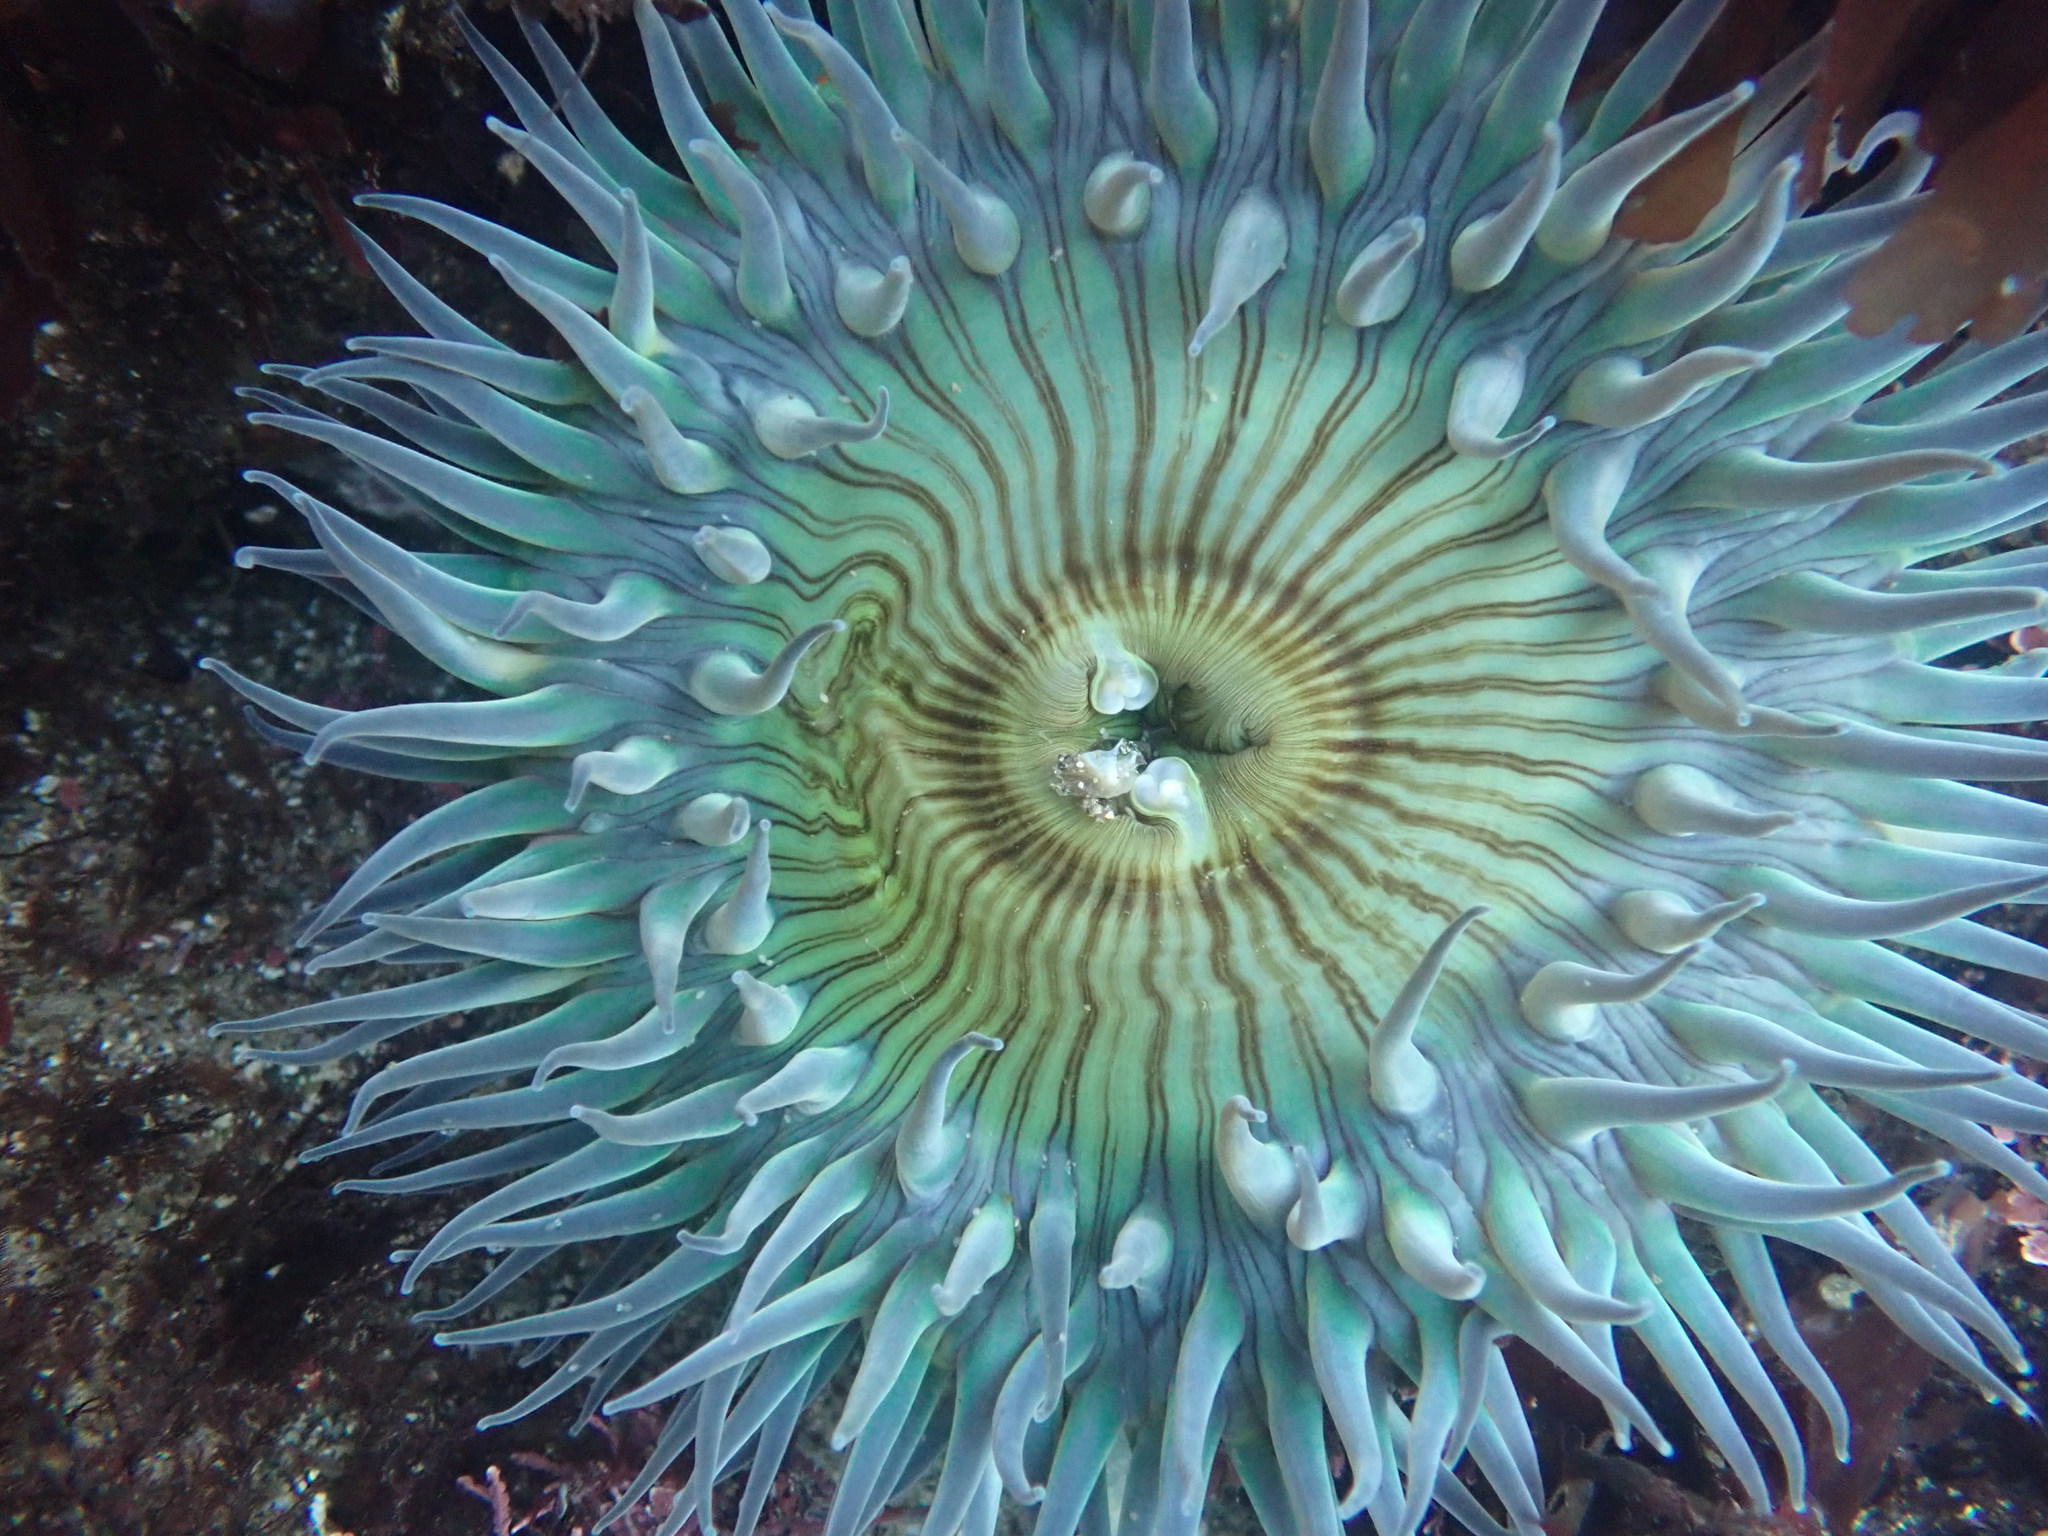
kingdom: Animalia
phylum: Cnidaria
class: Anthozoa
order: Actiniaria
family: Actiniidae
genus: Anthopleura
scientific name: Anthopleura sola
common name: Sun anemone
